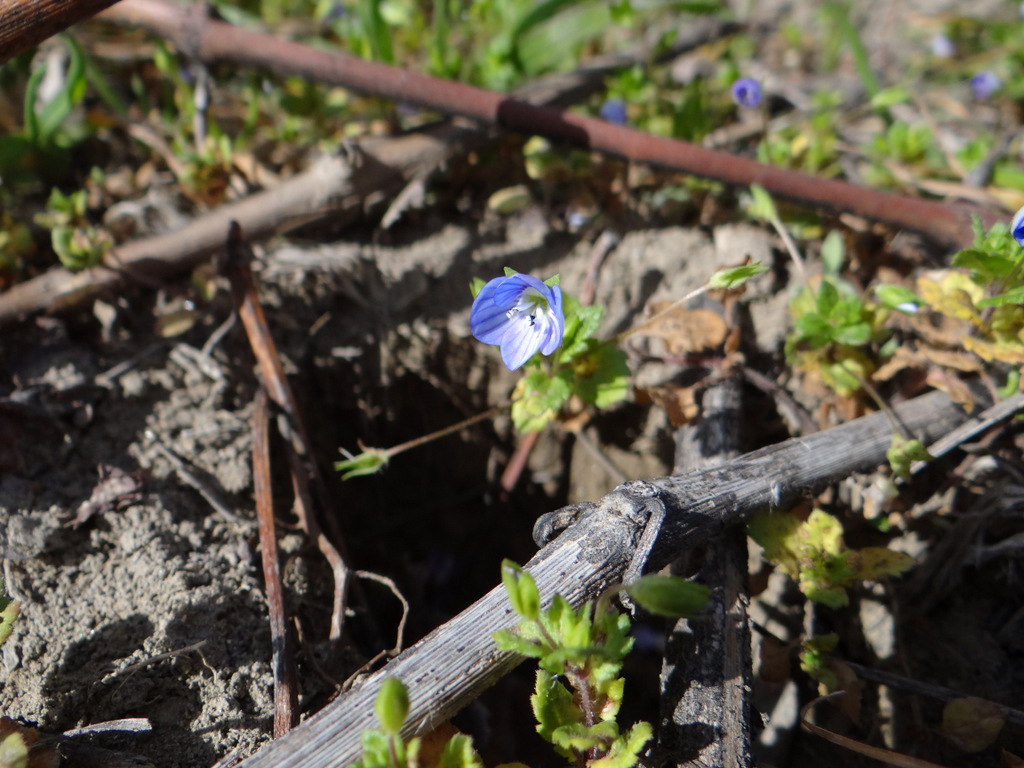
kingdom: Plantae
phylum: Tracheophyta
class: Magnoliopsida
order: Lamiales
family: Plantaginaceae
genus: Veronica
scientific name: Veronica persica
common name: Common field-speedwell
